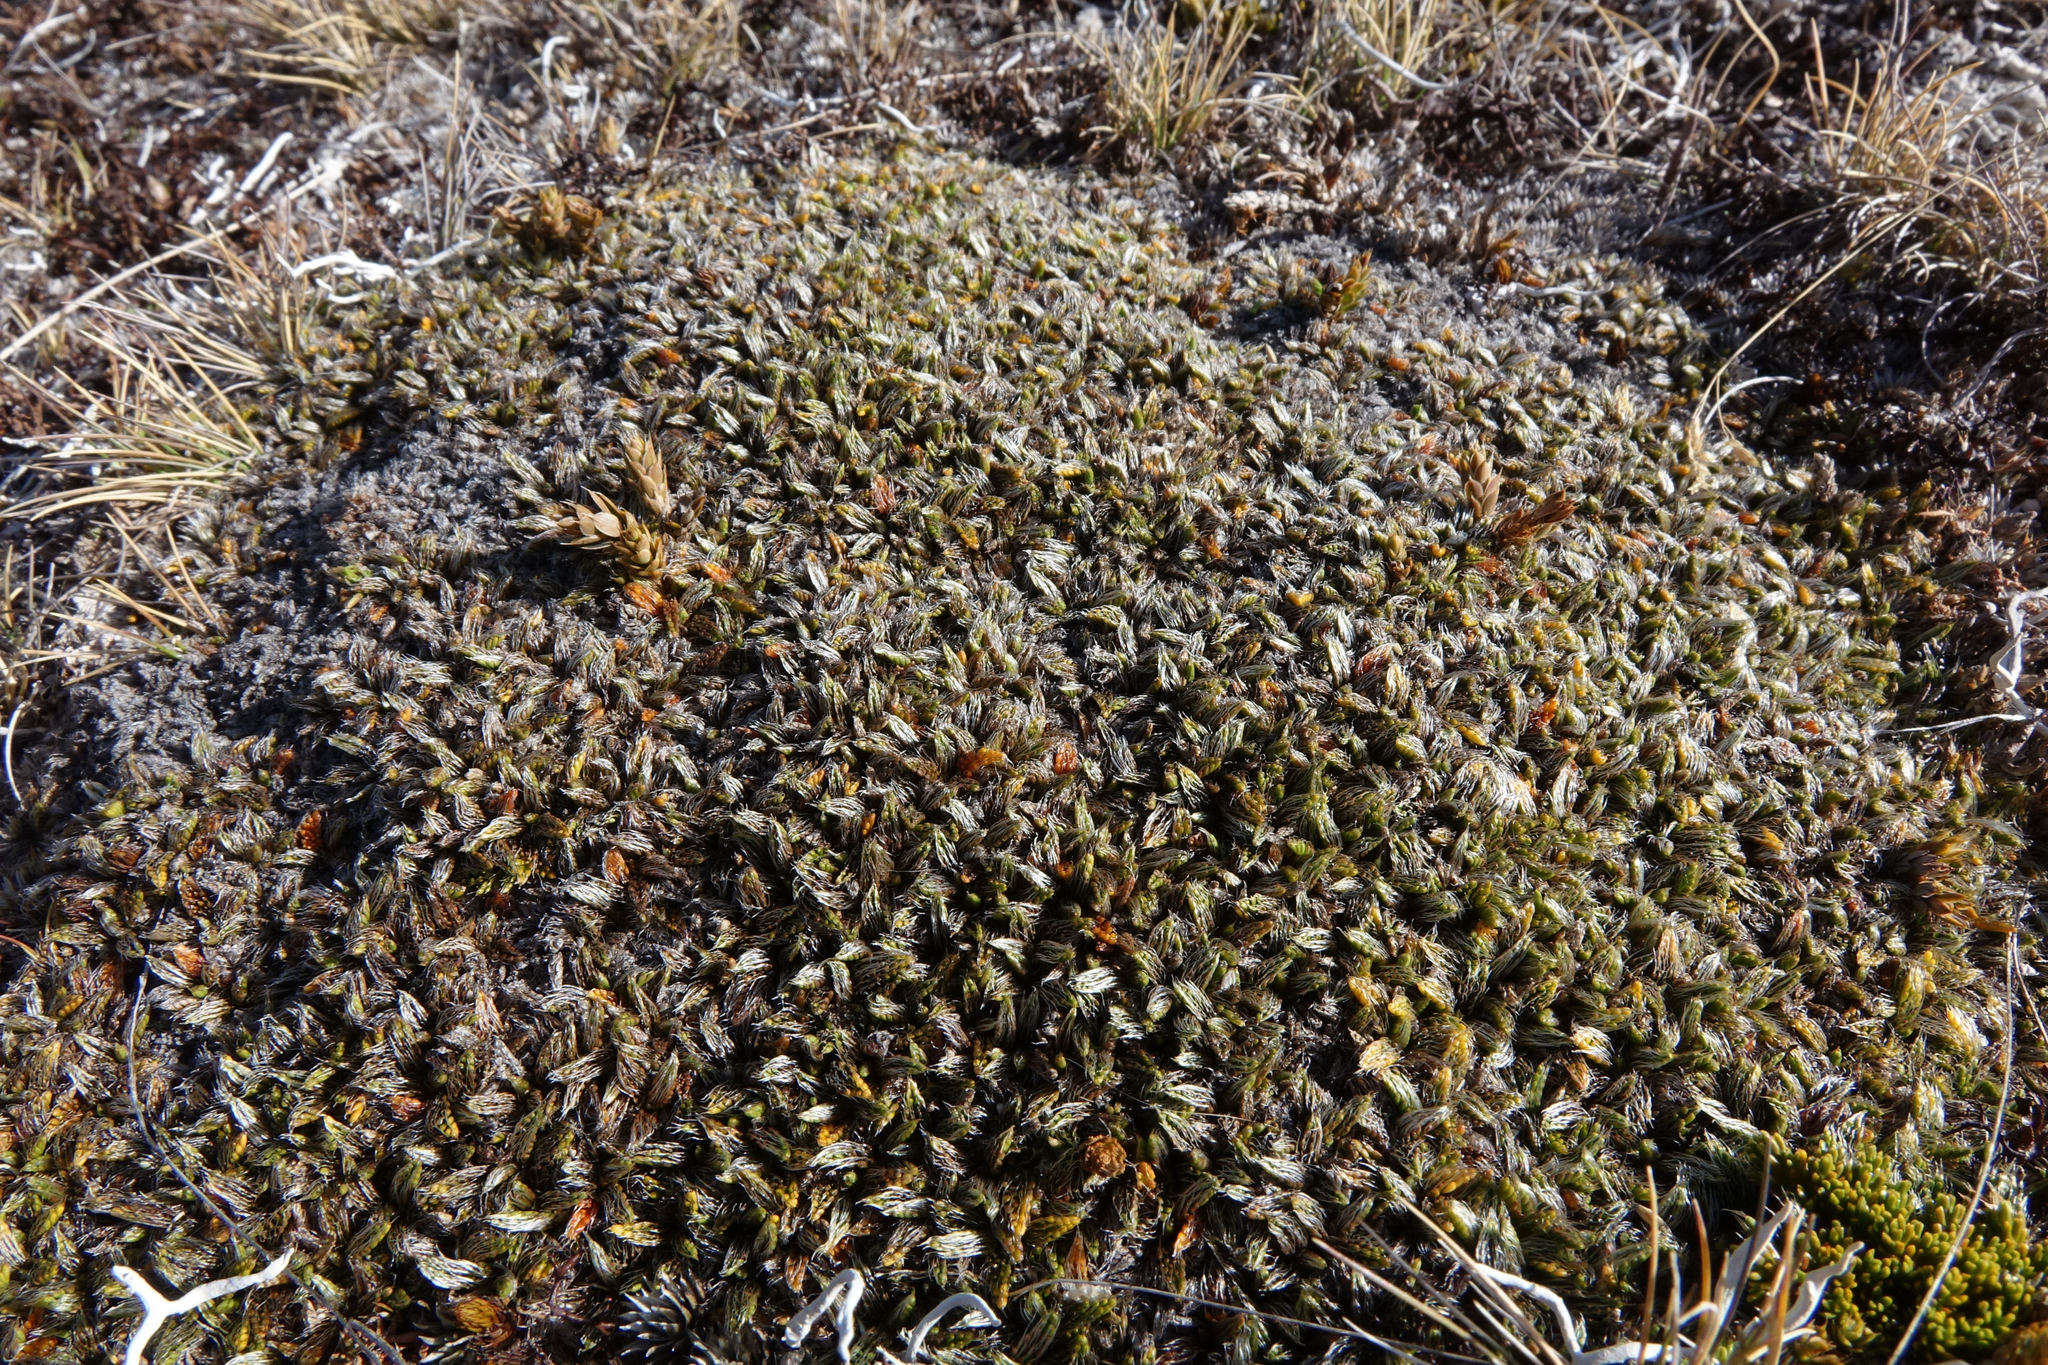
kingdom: Plantae
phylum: Tracheophyta
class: Magnoliopsida
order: Apiales
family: Apiaceae
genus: Anisotome
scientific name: Anisotome imbricata
